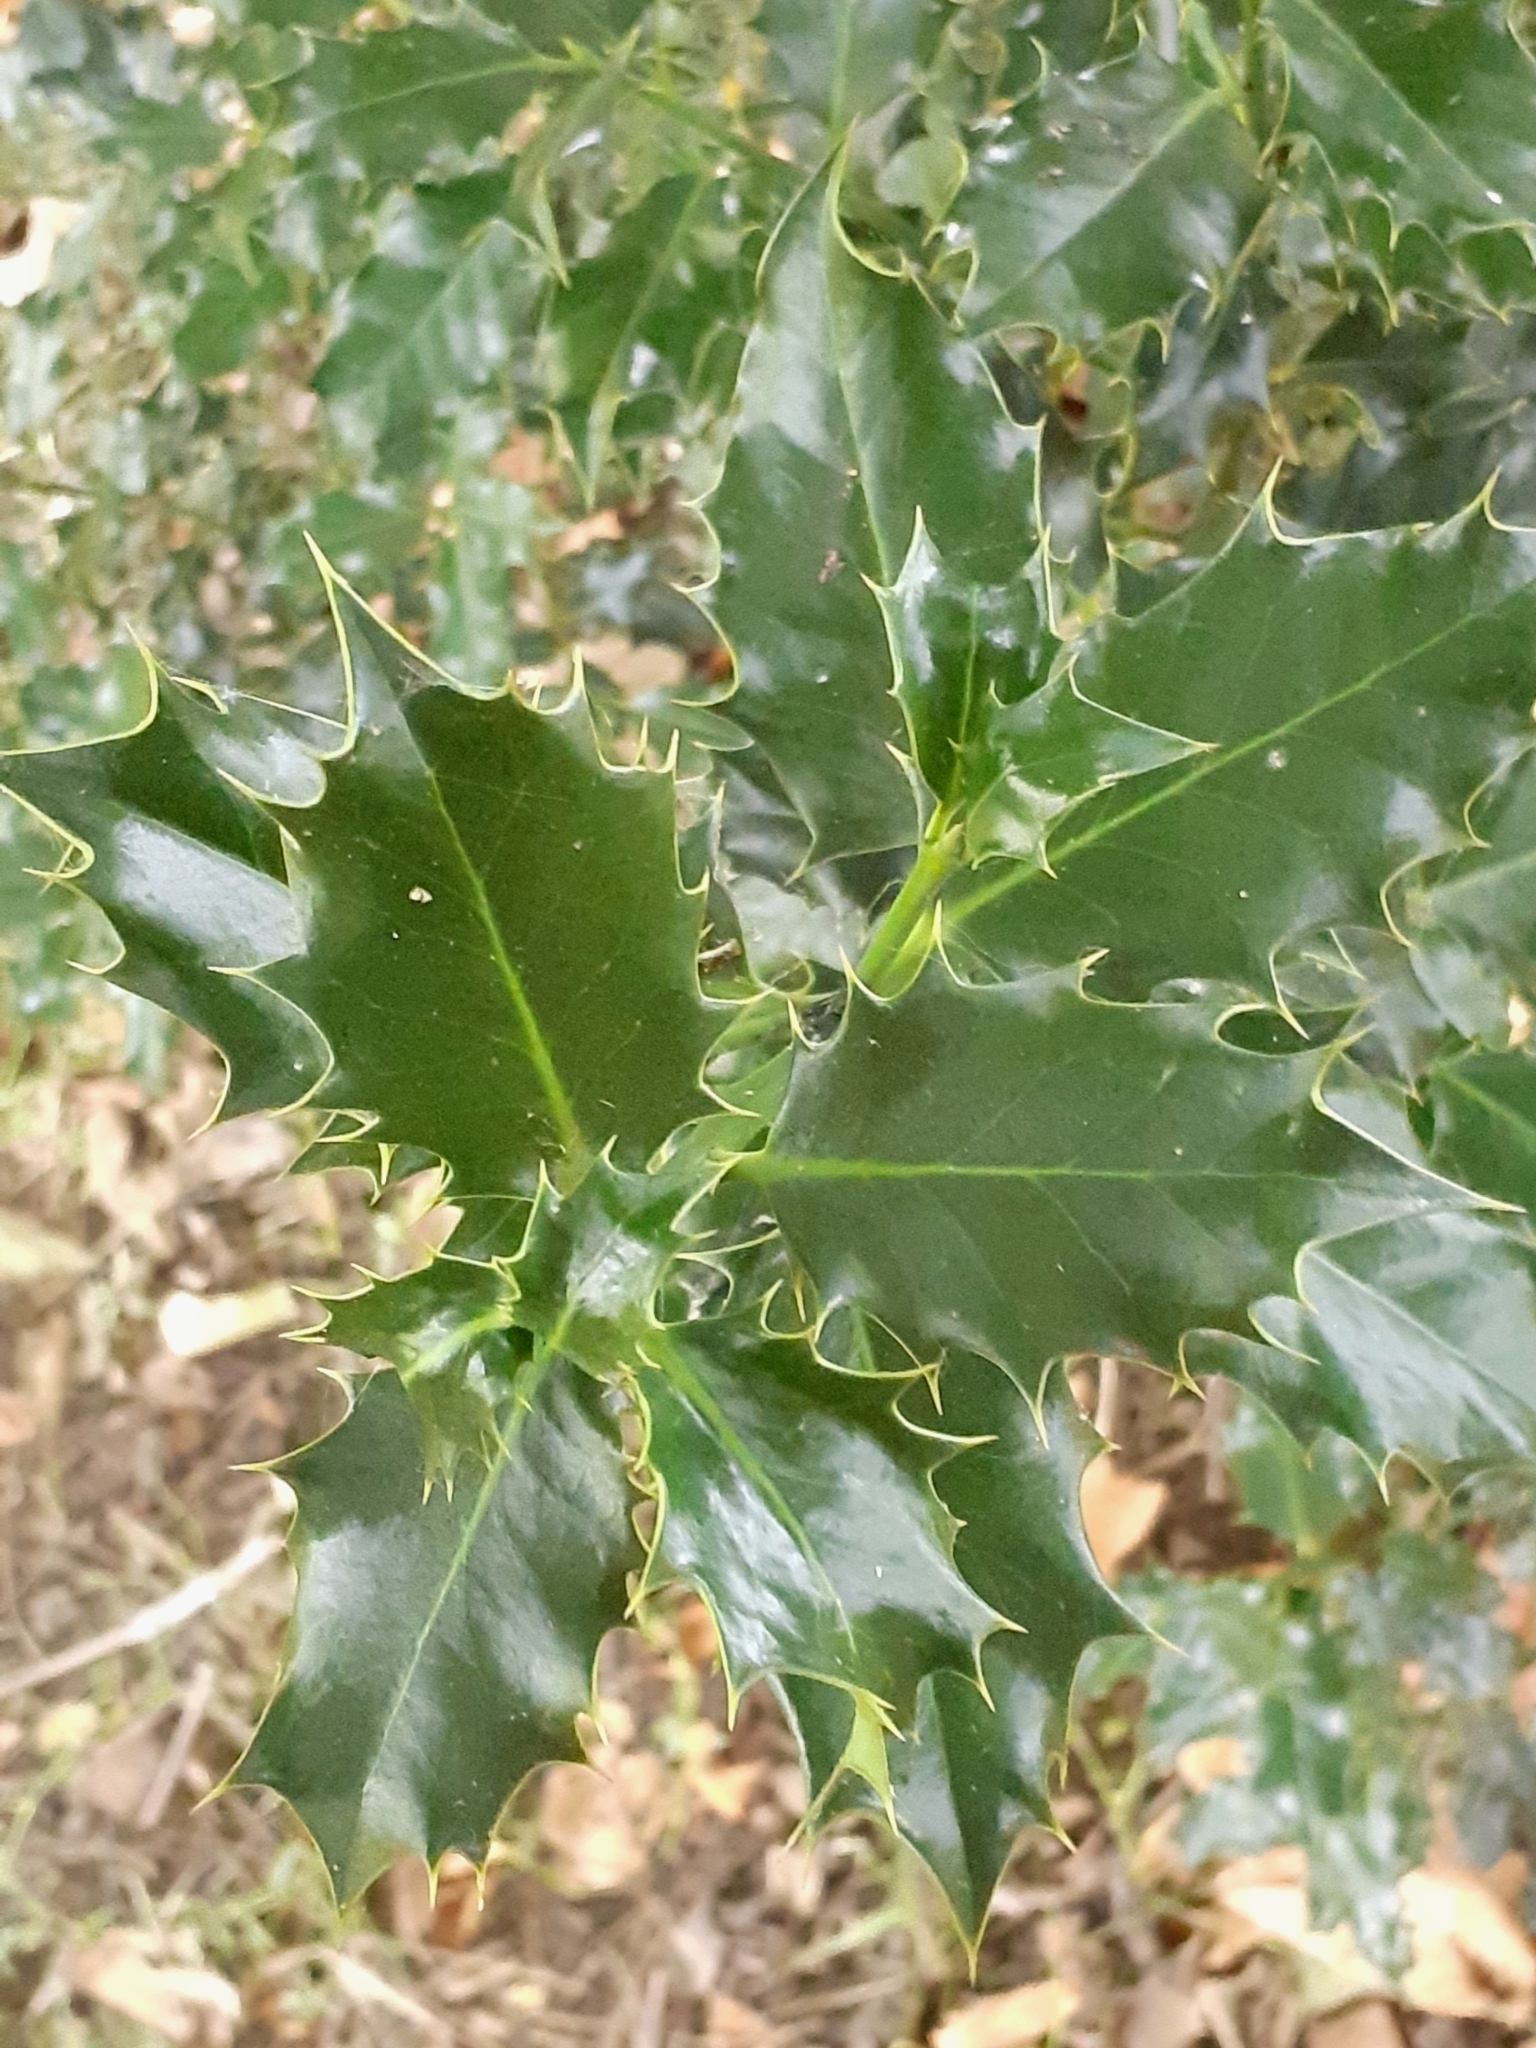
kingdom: Plantae
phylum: Tracheophyta
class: Magnoliopsida
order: Aquifoliales
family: Aquifoliaceae
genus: Ilex
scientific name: Ilex aquifolium
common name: English holly
